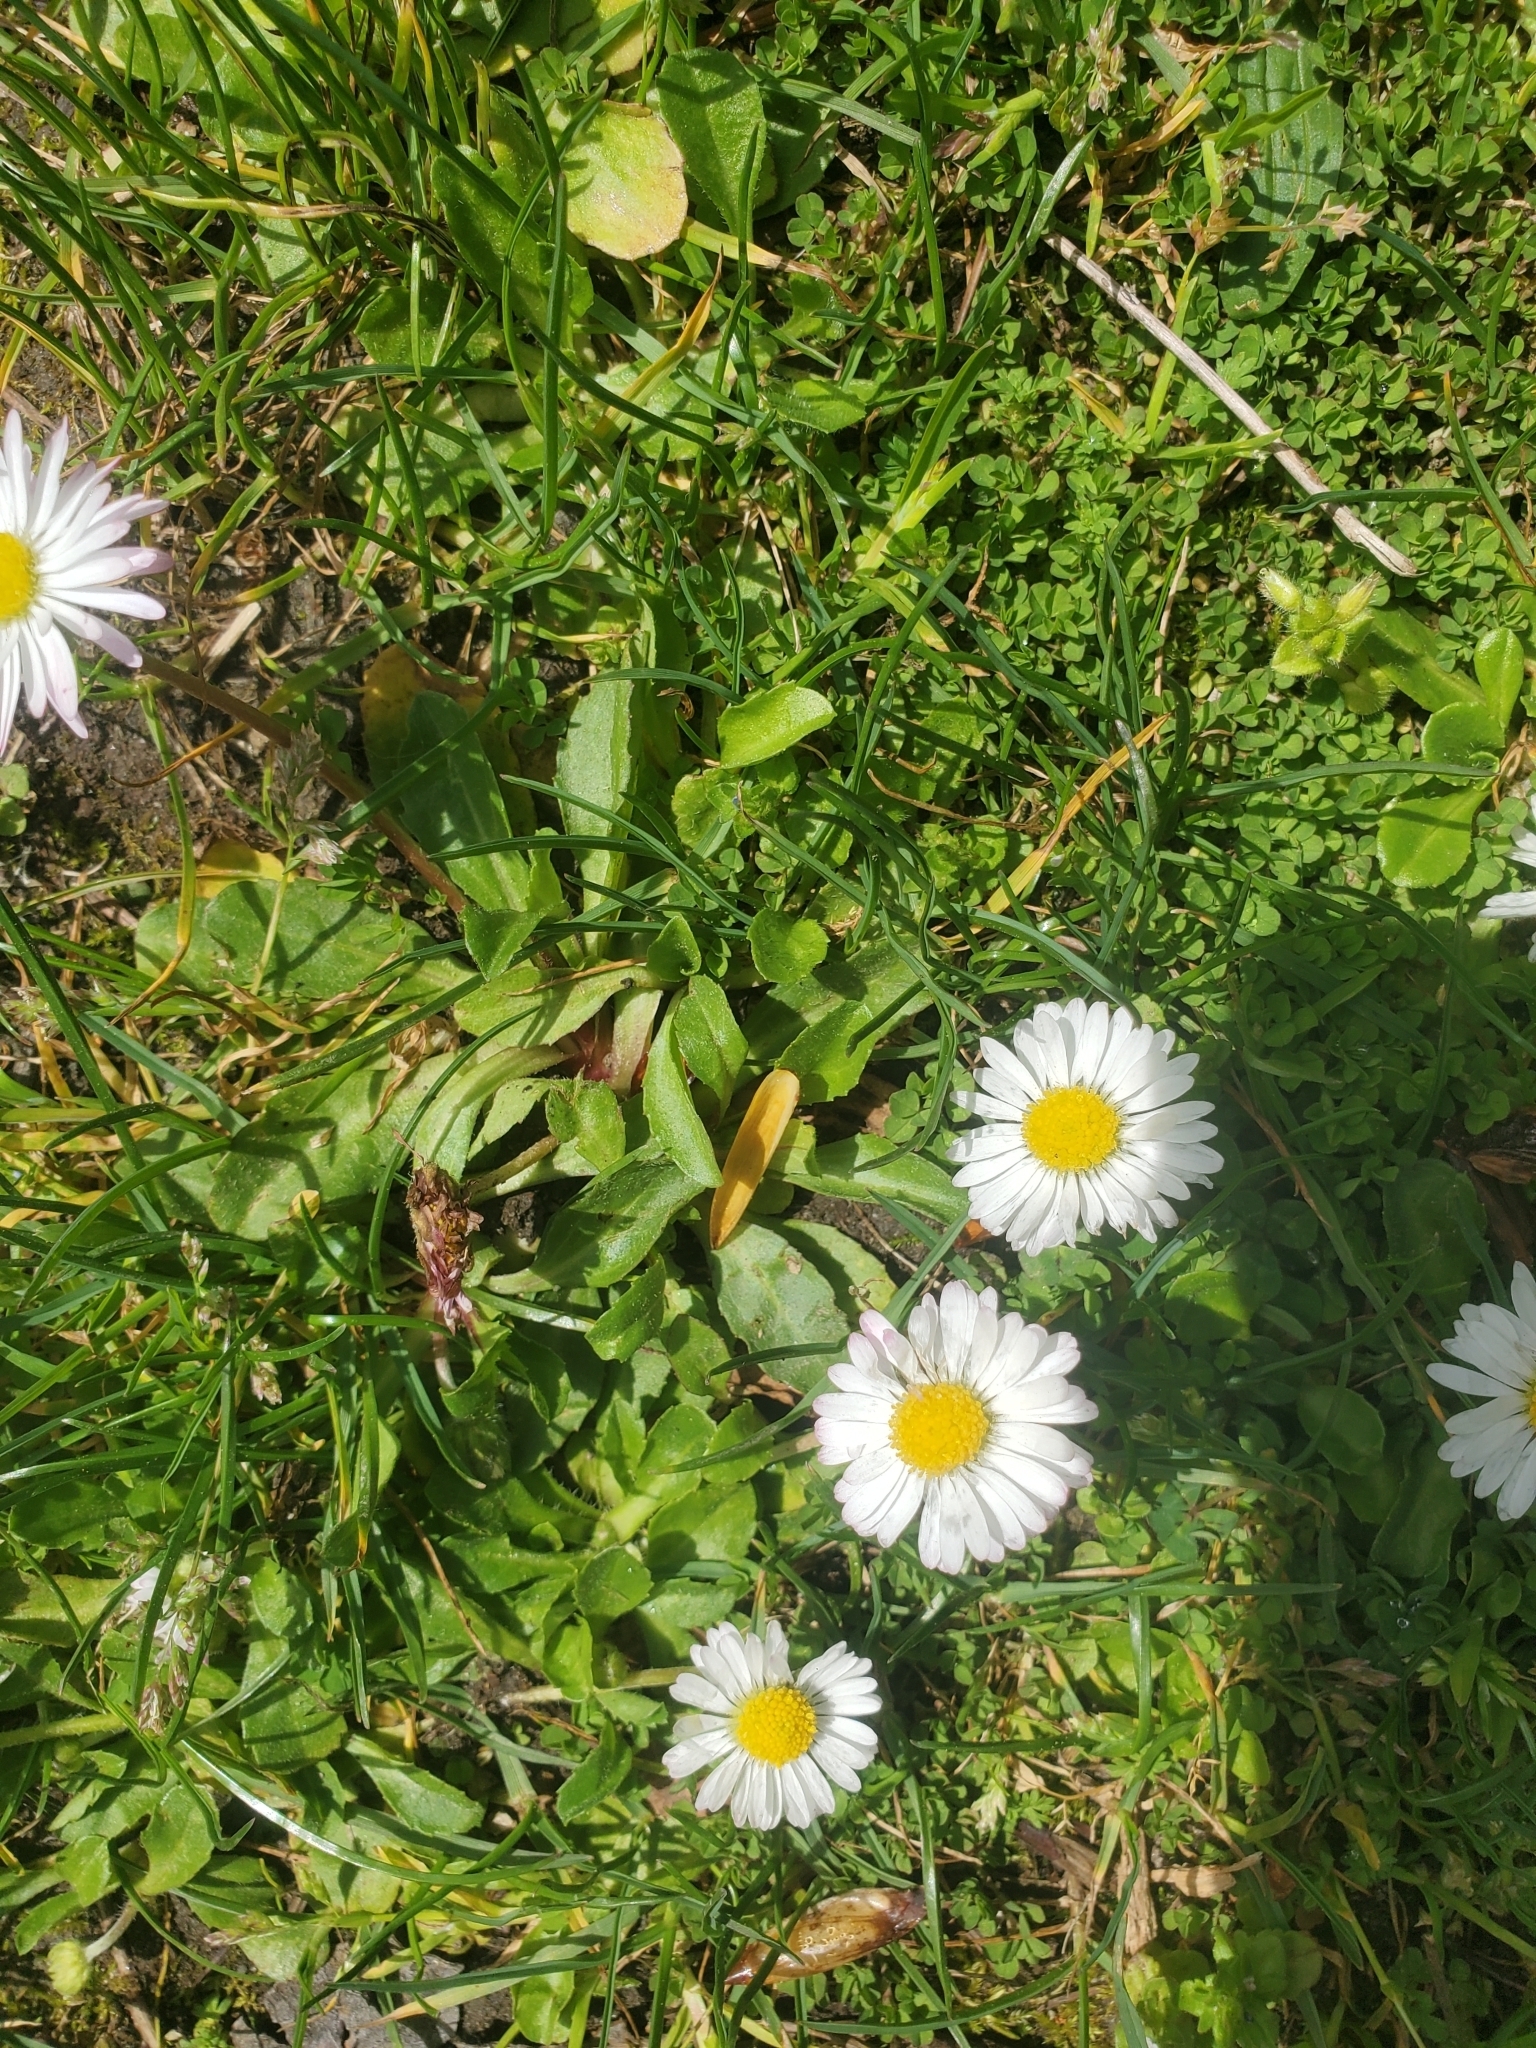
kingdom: Plantae
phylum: Tracheophyta
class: Magnoliopsida
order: Asterales
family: Asteraceae
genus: Bellis
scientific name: Bellis perennis
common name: Lawndaisy
